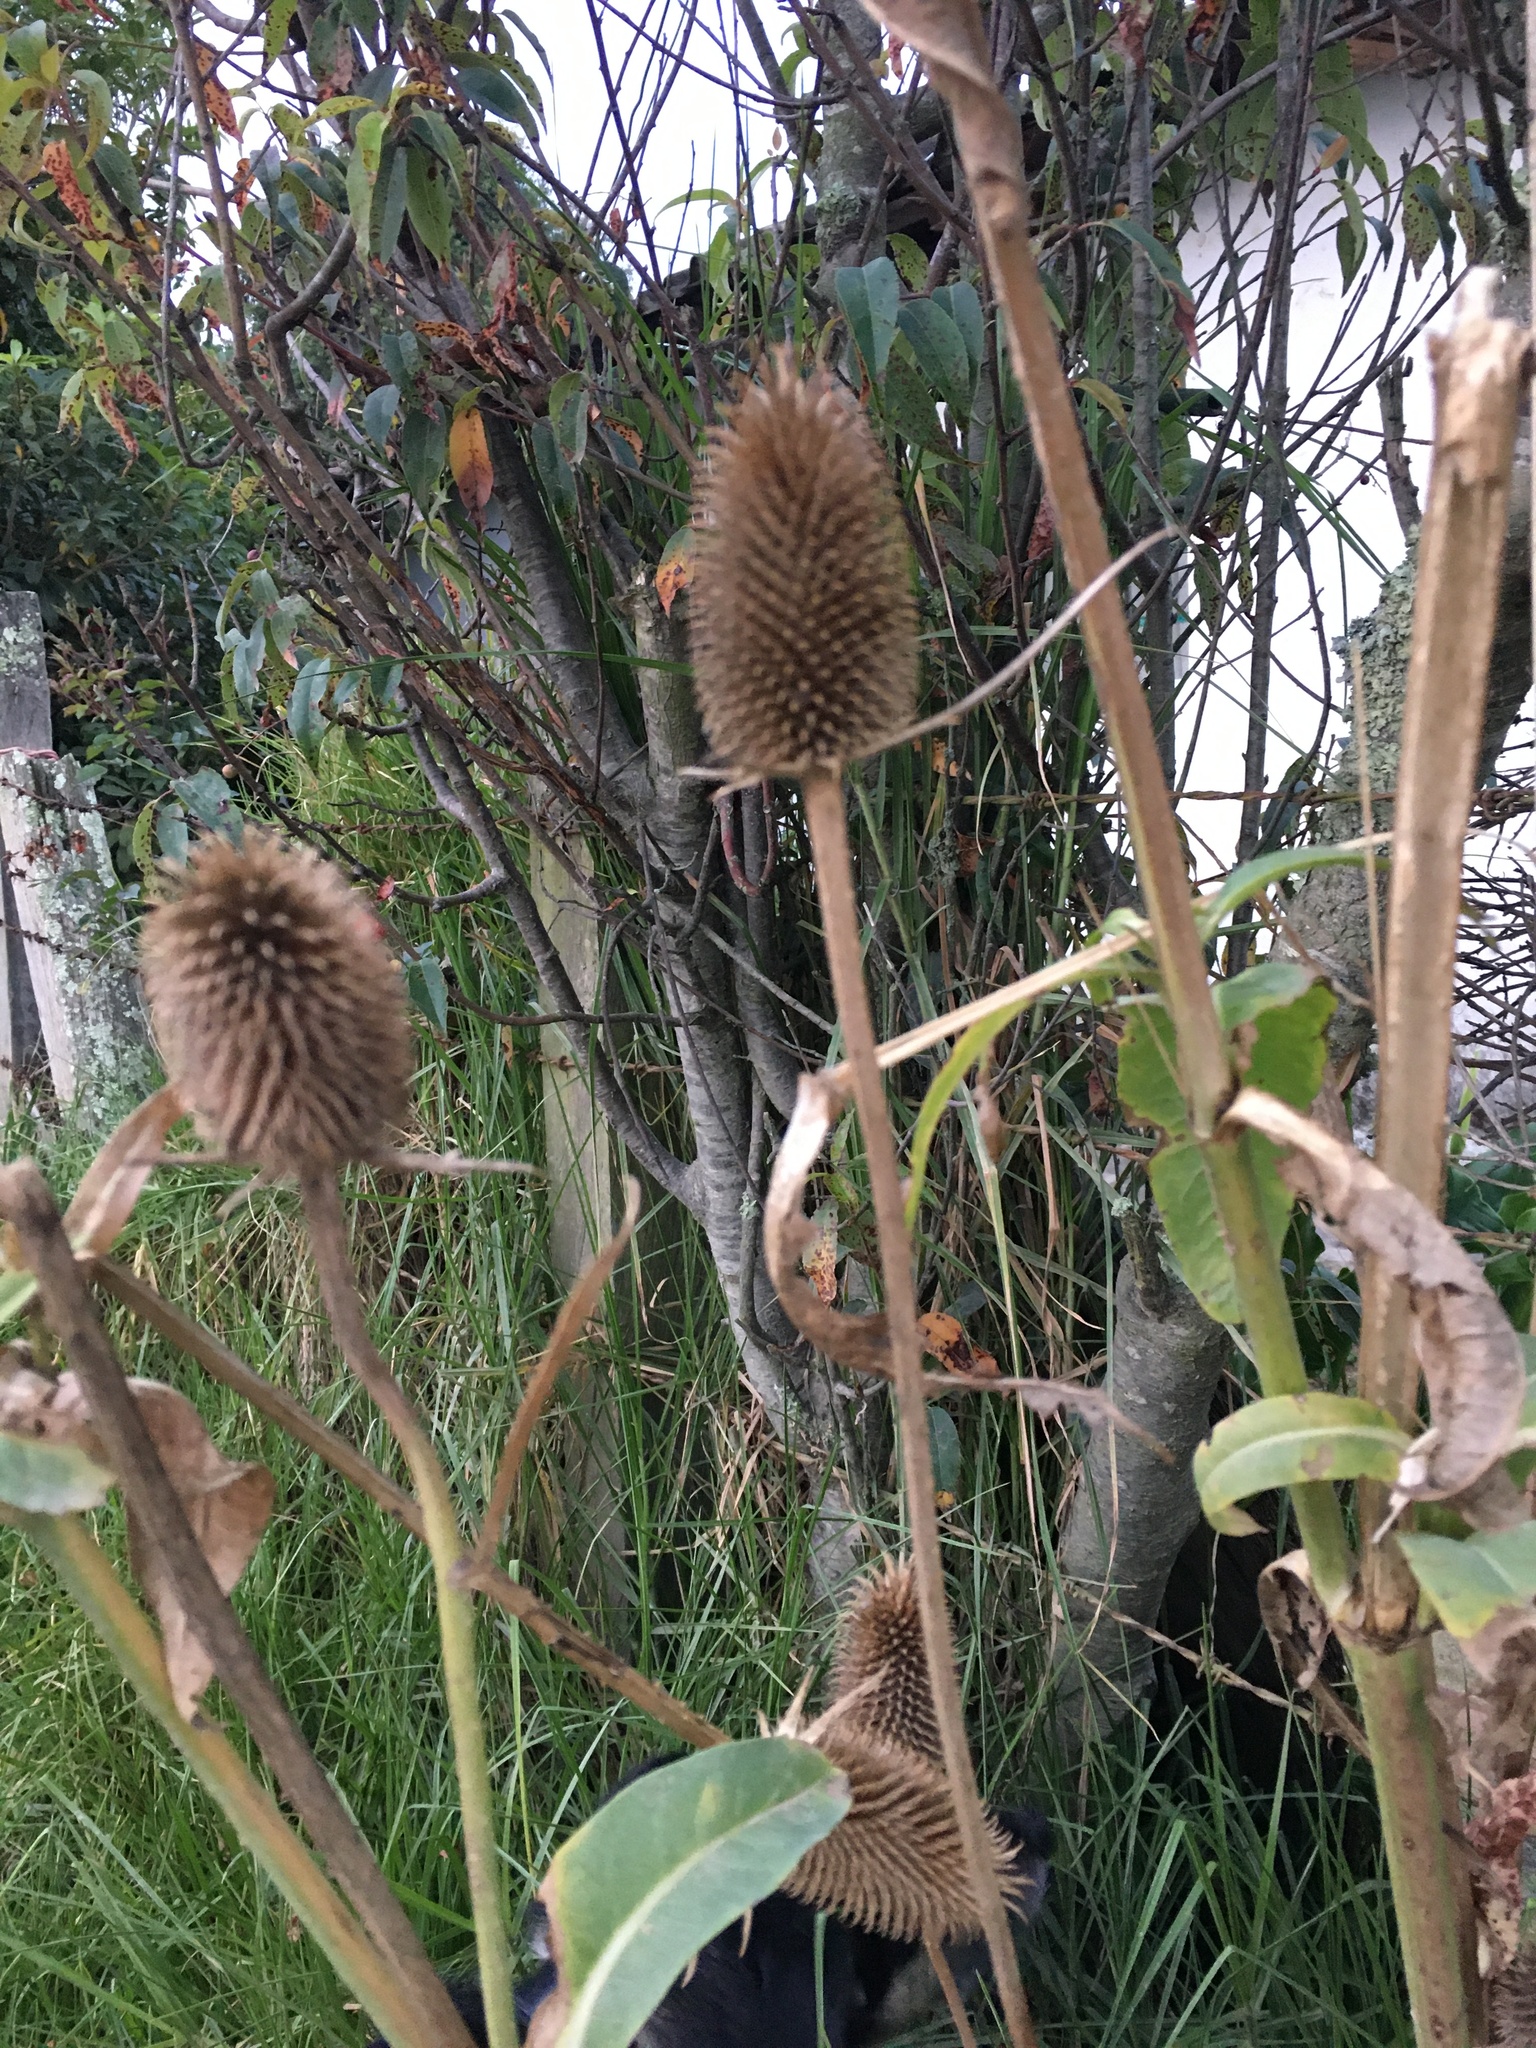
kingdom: Plantae
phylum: Tracheophyta
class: Magnoliopsida
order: Dipsacales
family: Caprifoliaceae
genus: Dipsacus
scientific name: Dipsacus sativus
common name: Fuller's teasel
